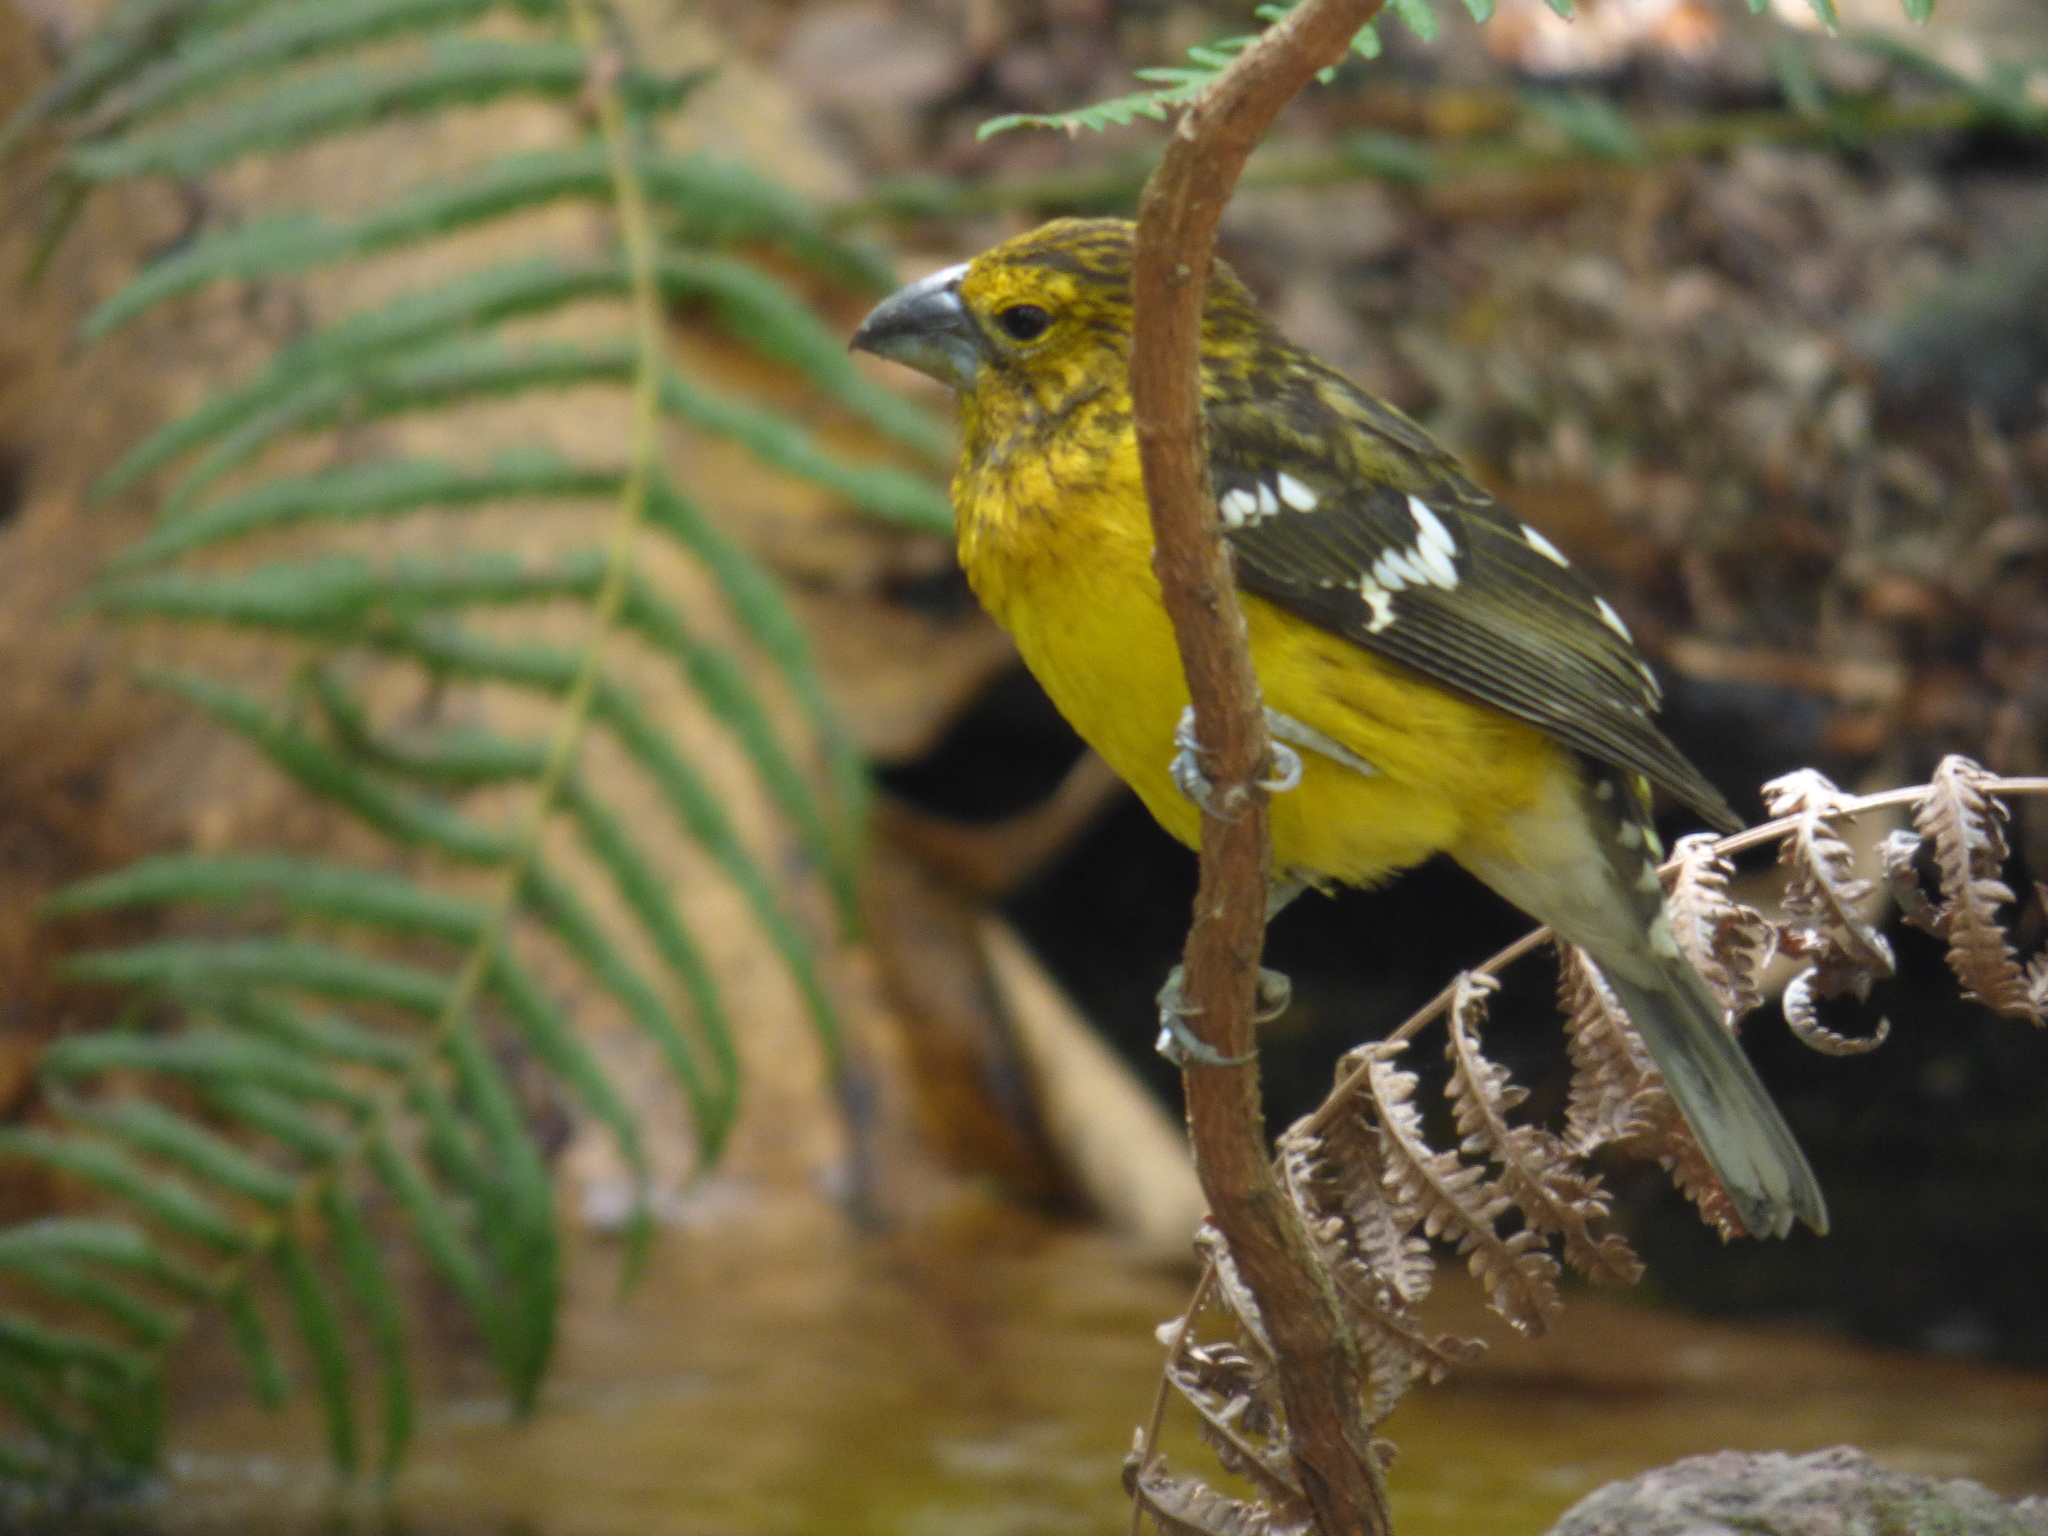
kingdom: Animalia
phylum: Chordata
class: Aves
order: Passeriformes
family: Cardinalidae
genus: Pheucticus
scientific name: Pheucticus chrysogaster
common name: Golden grosbeak
